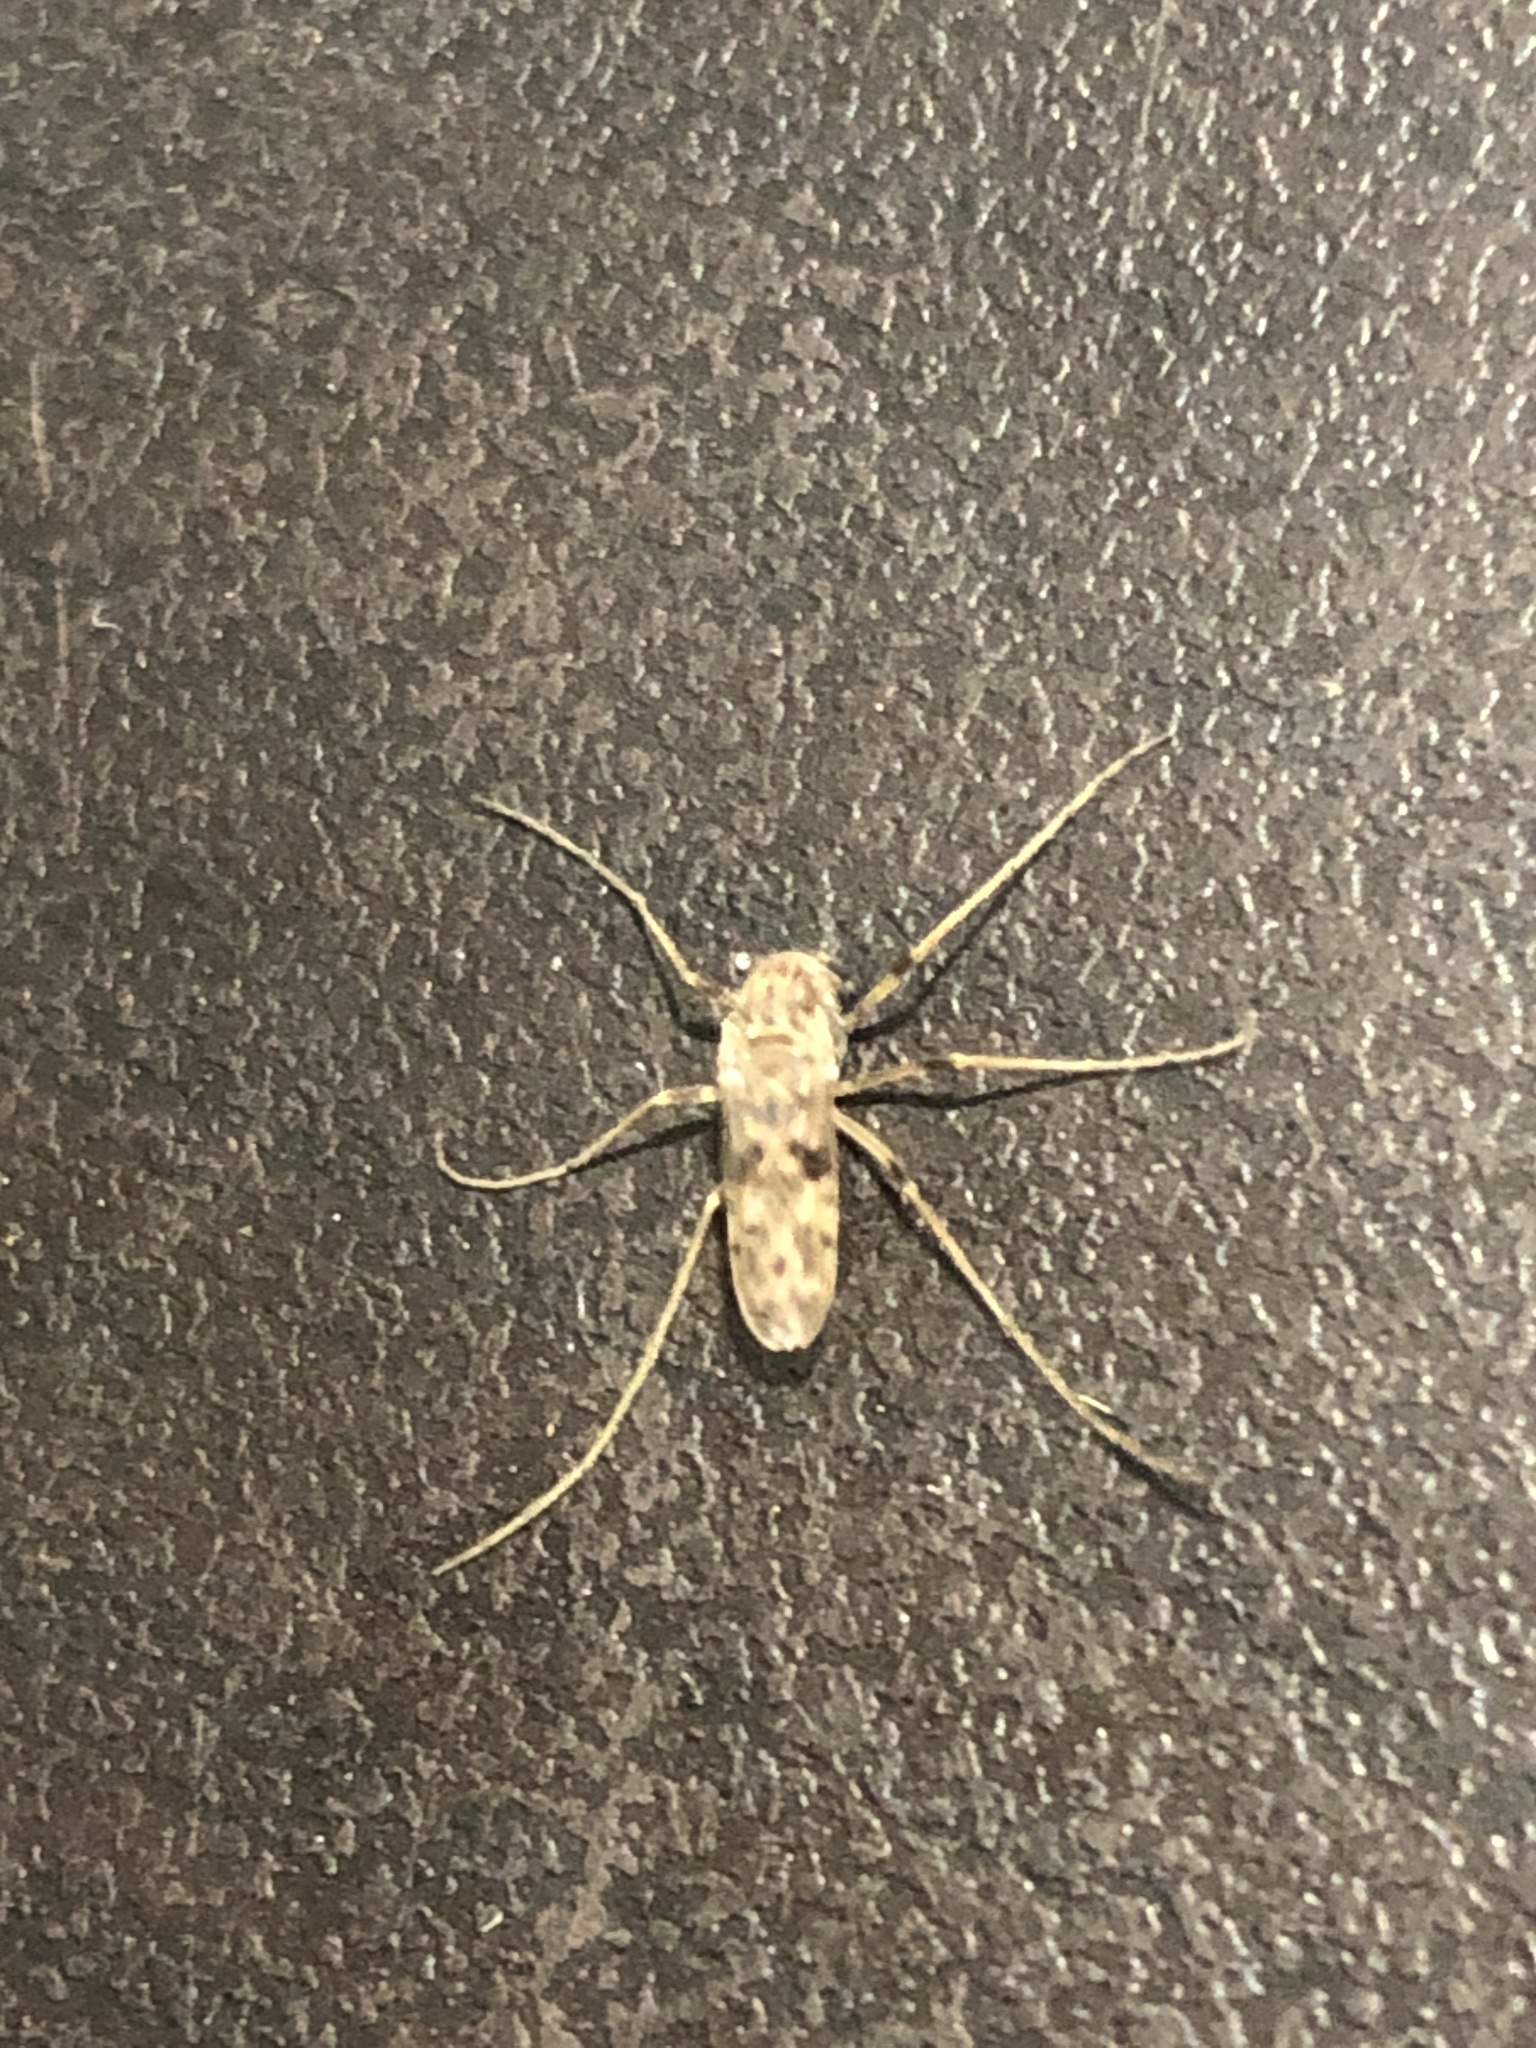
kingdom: Animalia
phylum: Arthropoda
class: Insecta
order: Diptera
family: Chironomidae
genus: Gressittius
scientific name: Gressittius antarcticus
